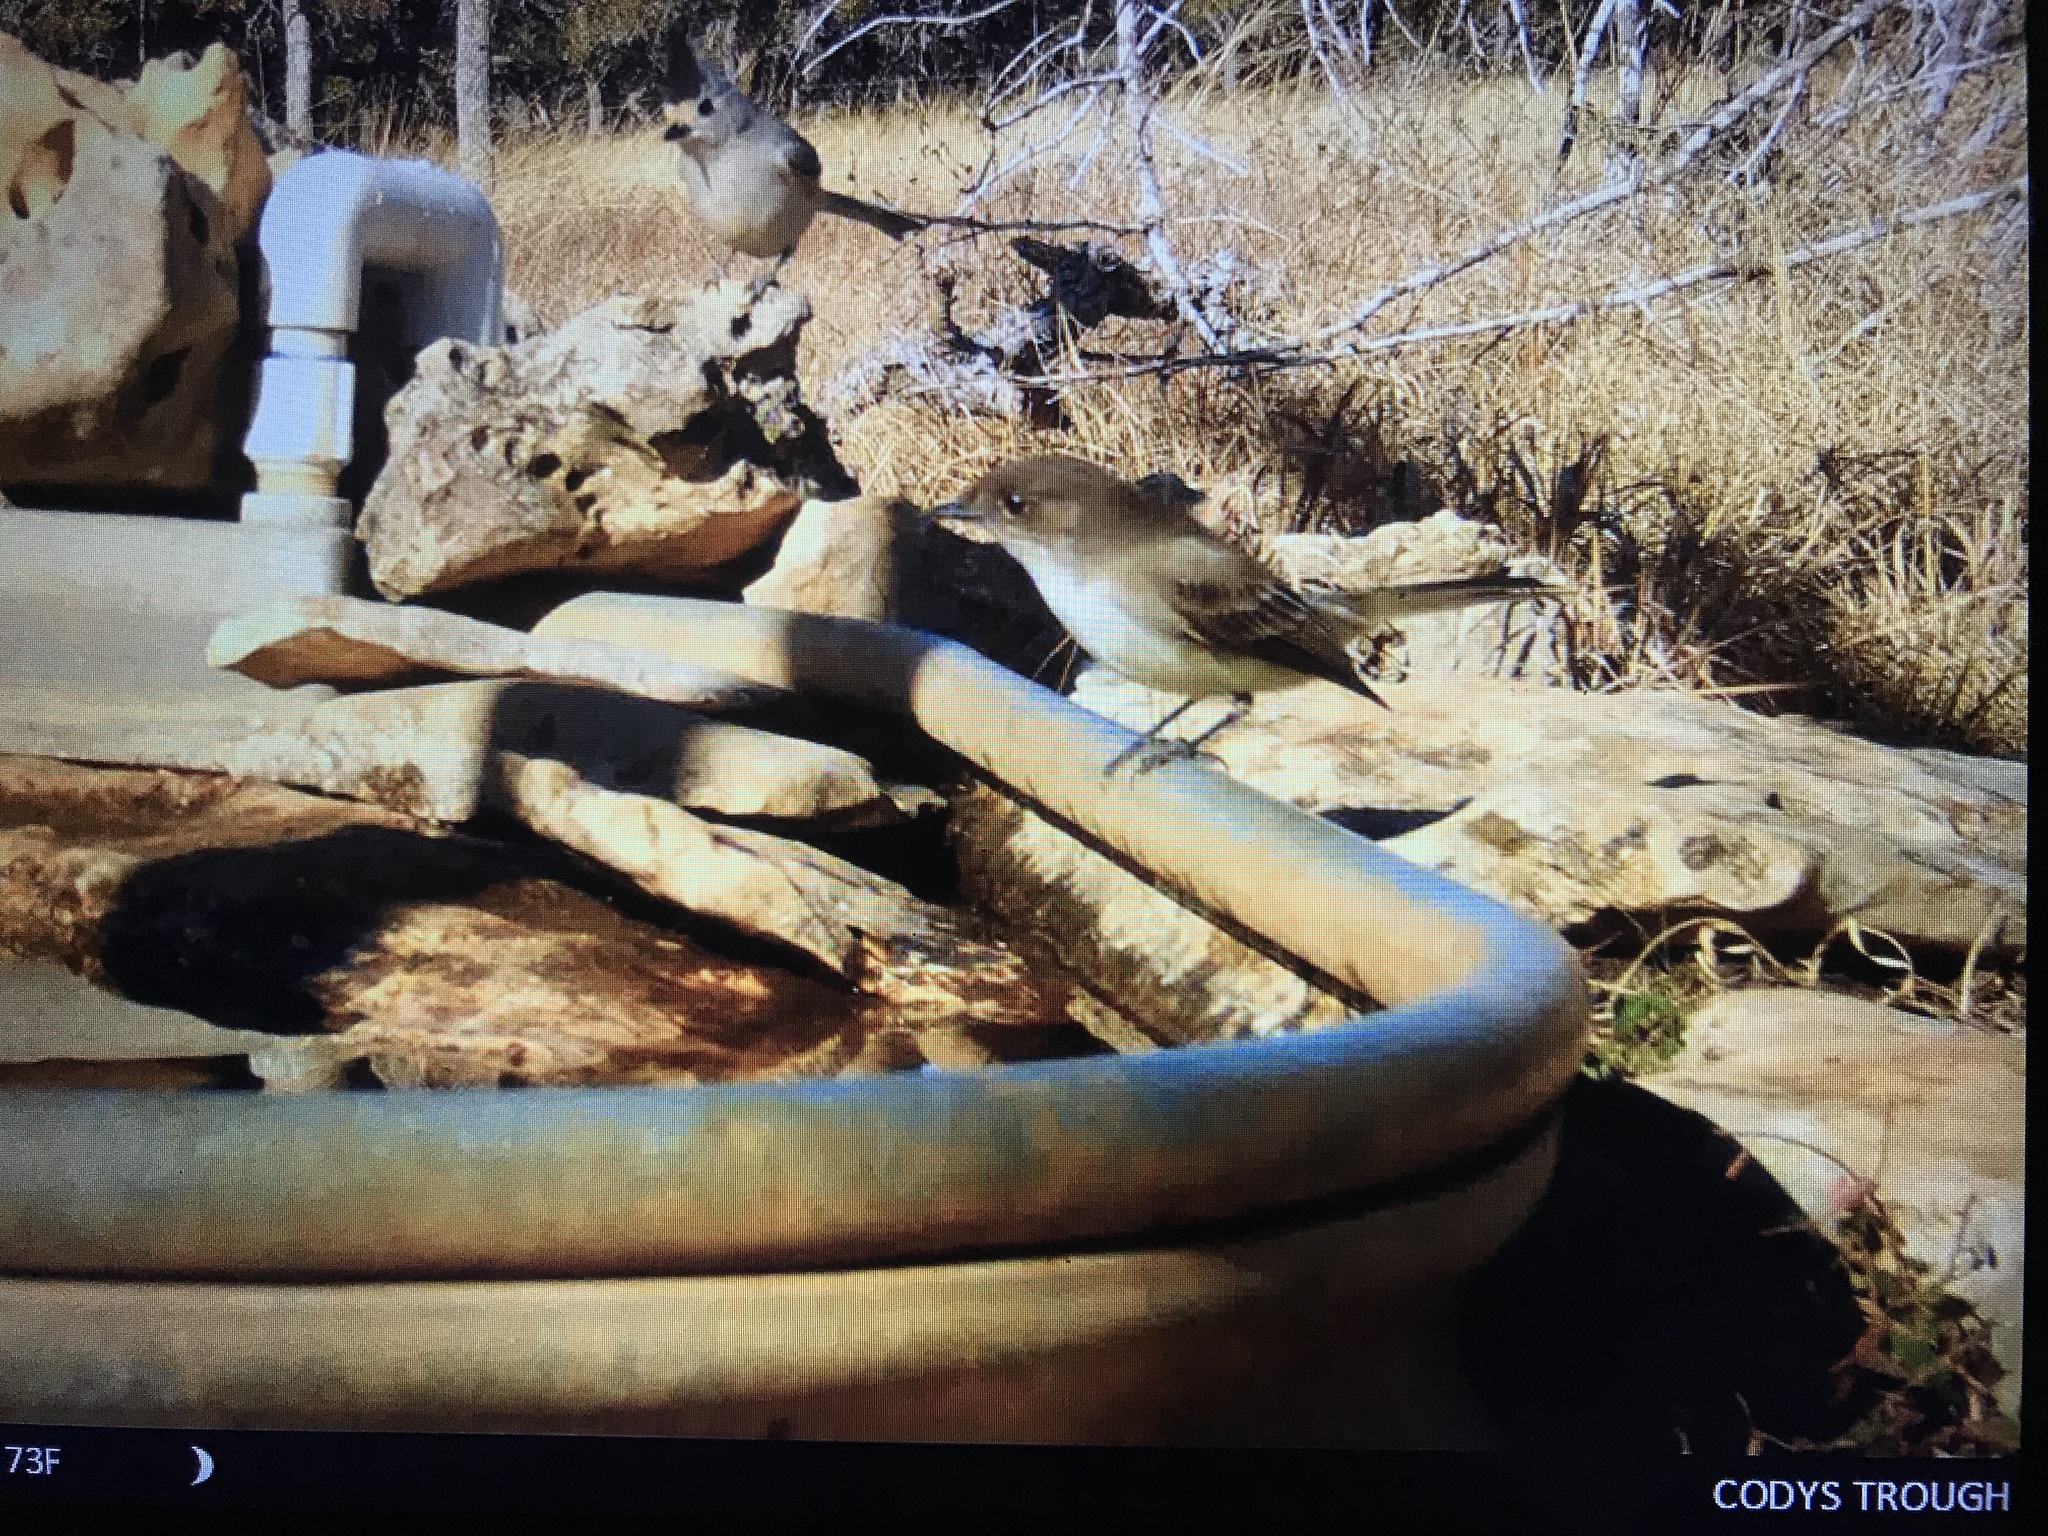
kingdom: Animalia
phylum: Chordata
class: Aves
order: Passeriformes
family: Tyrannidae
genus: Sayornis
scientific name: Sayornis phoebe
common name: Eastern phoebe
